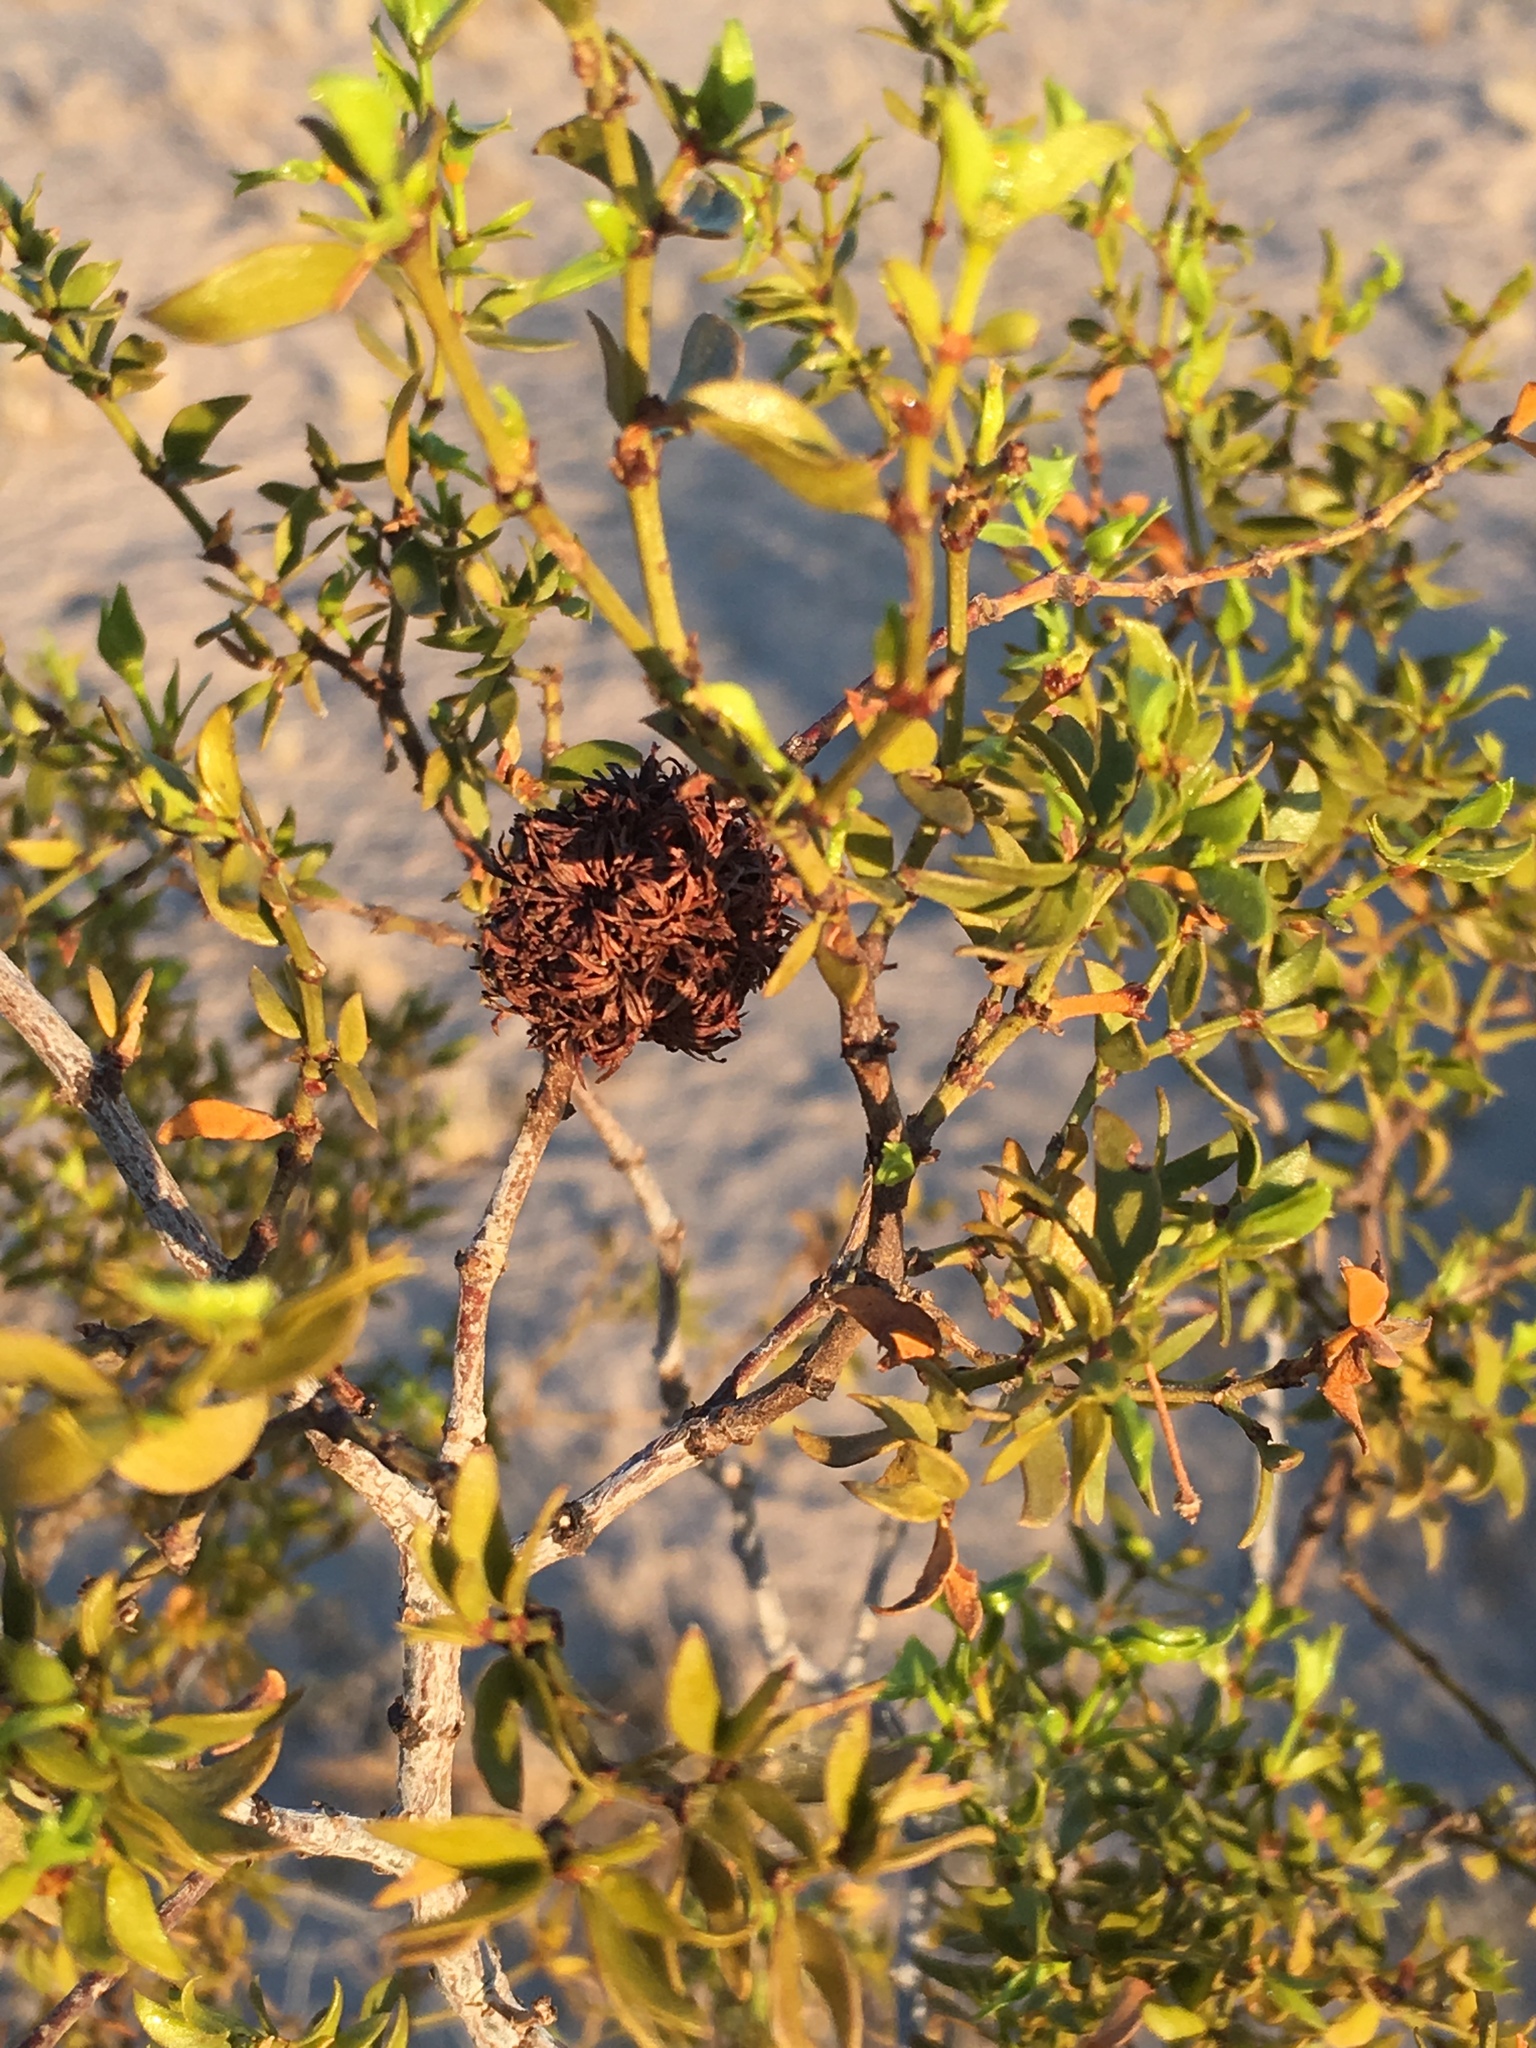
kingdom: Animalia
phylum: Arthropoda
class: Insecta
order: Diptera
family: Cecidomyiidae
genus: Asphondylia
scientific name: Asphondylia auripila
